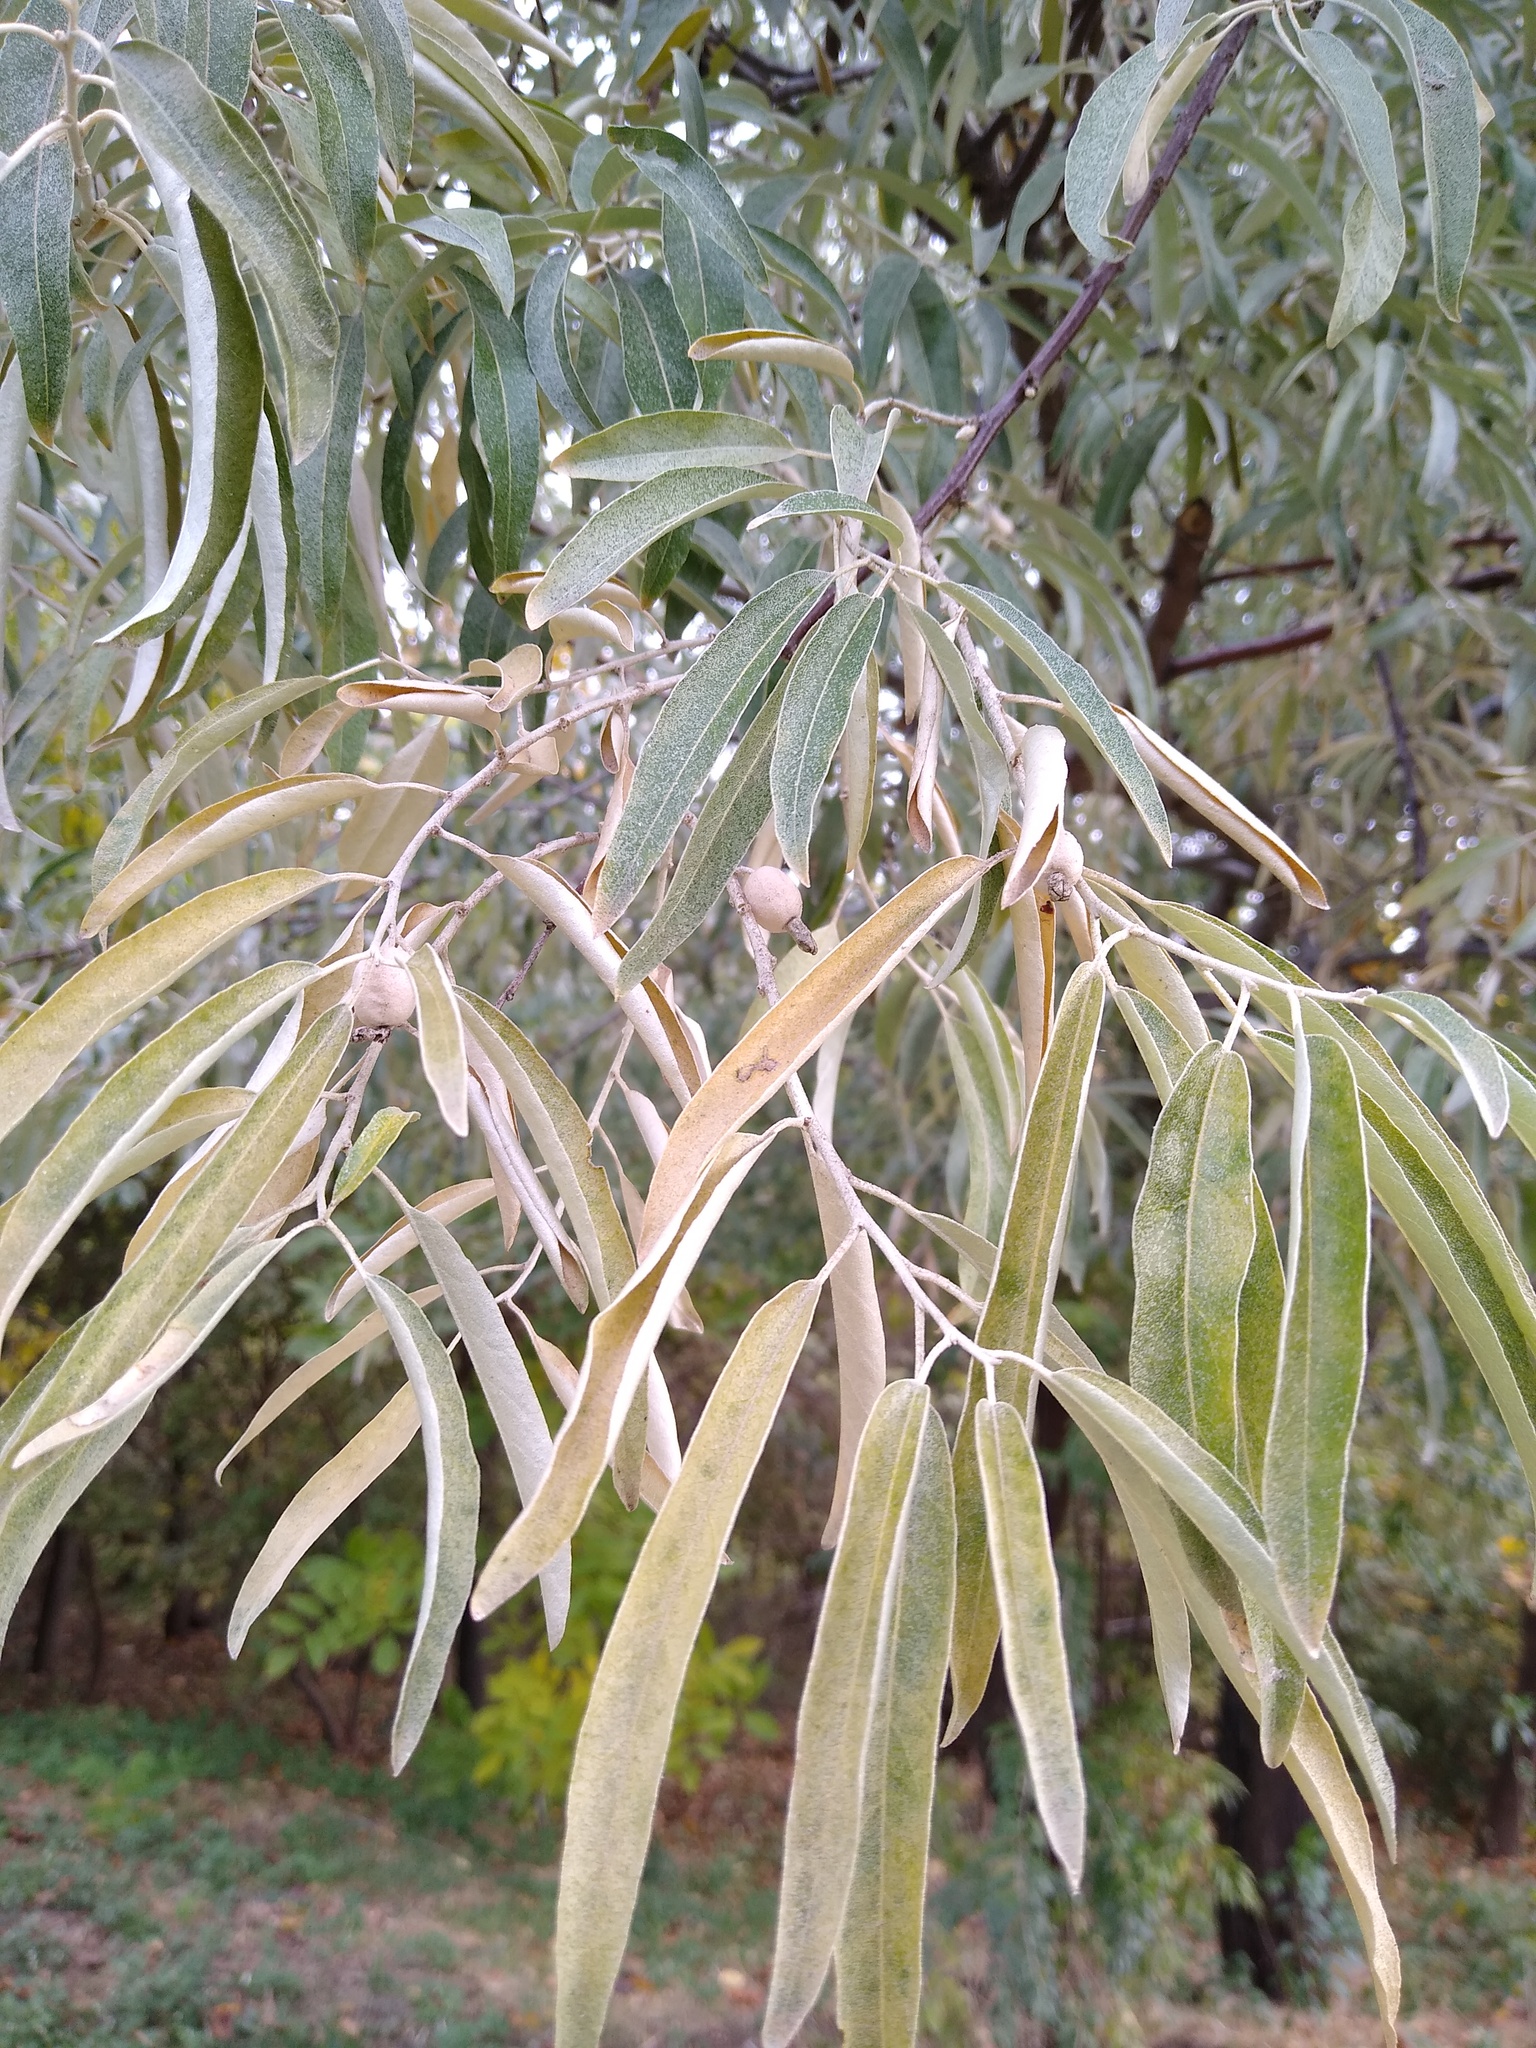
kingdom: Plantae
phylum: Tracheophyta
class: Magnoliopsida
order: Rosales
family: Elaeagnaceae
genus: Elaeagnus
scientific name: Elaeagnus angustifolia
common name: Russian olive
